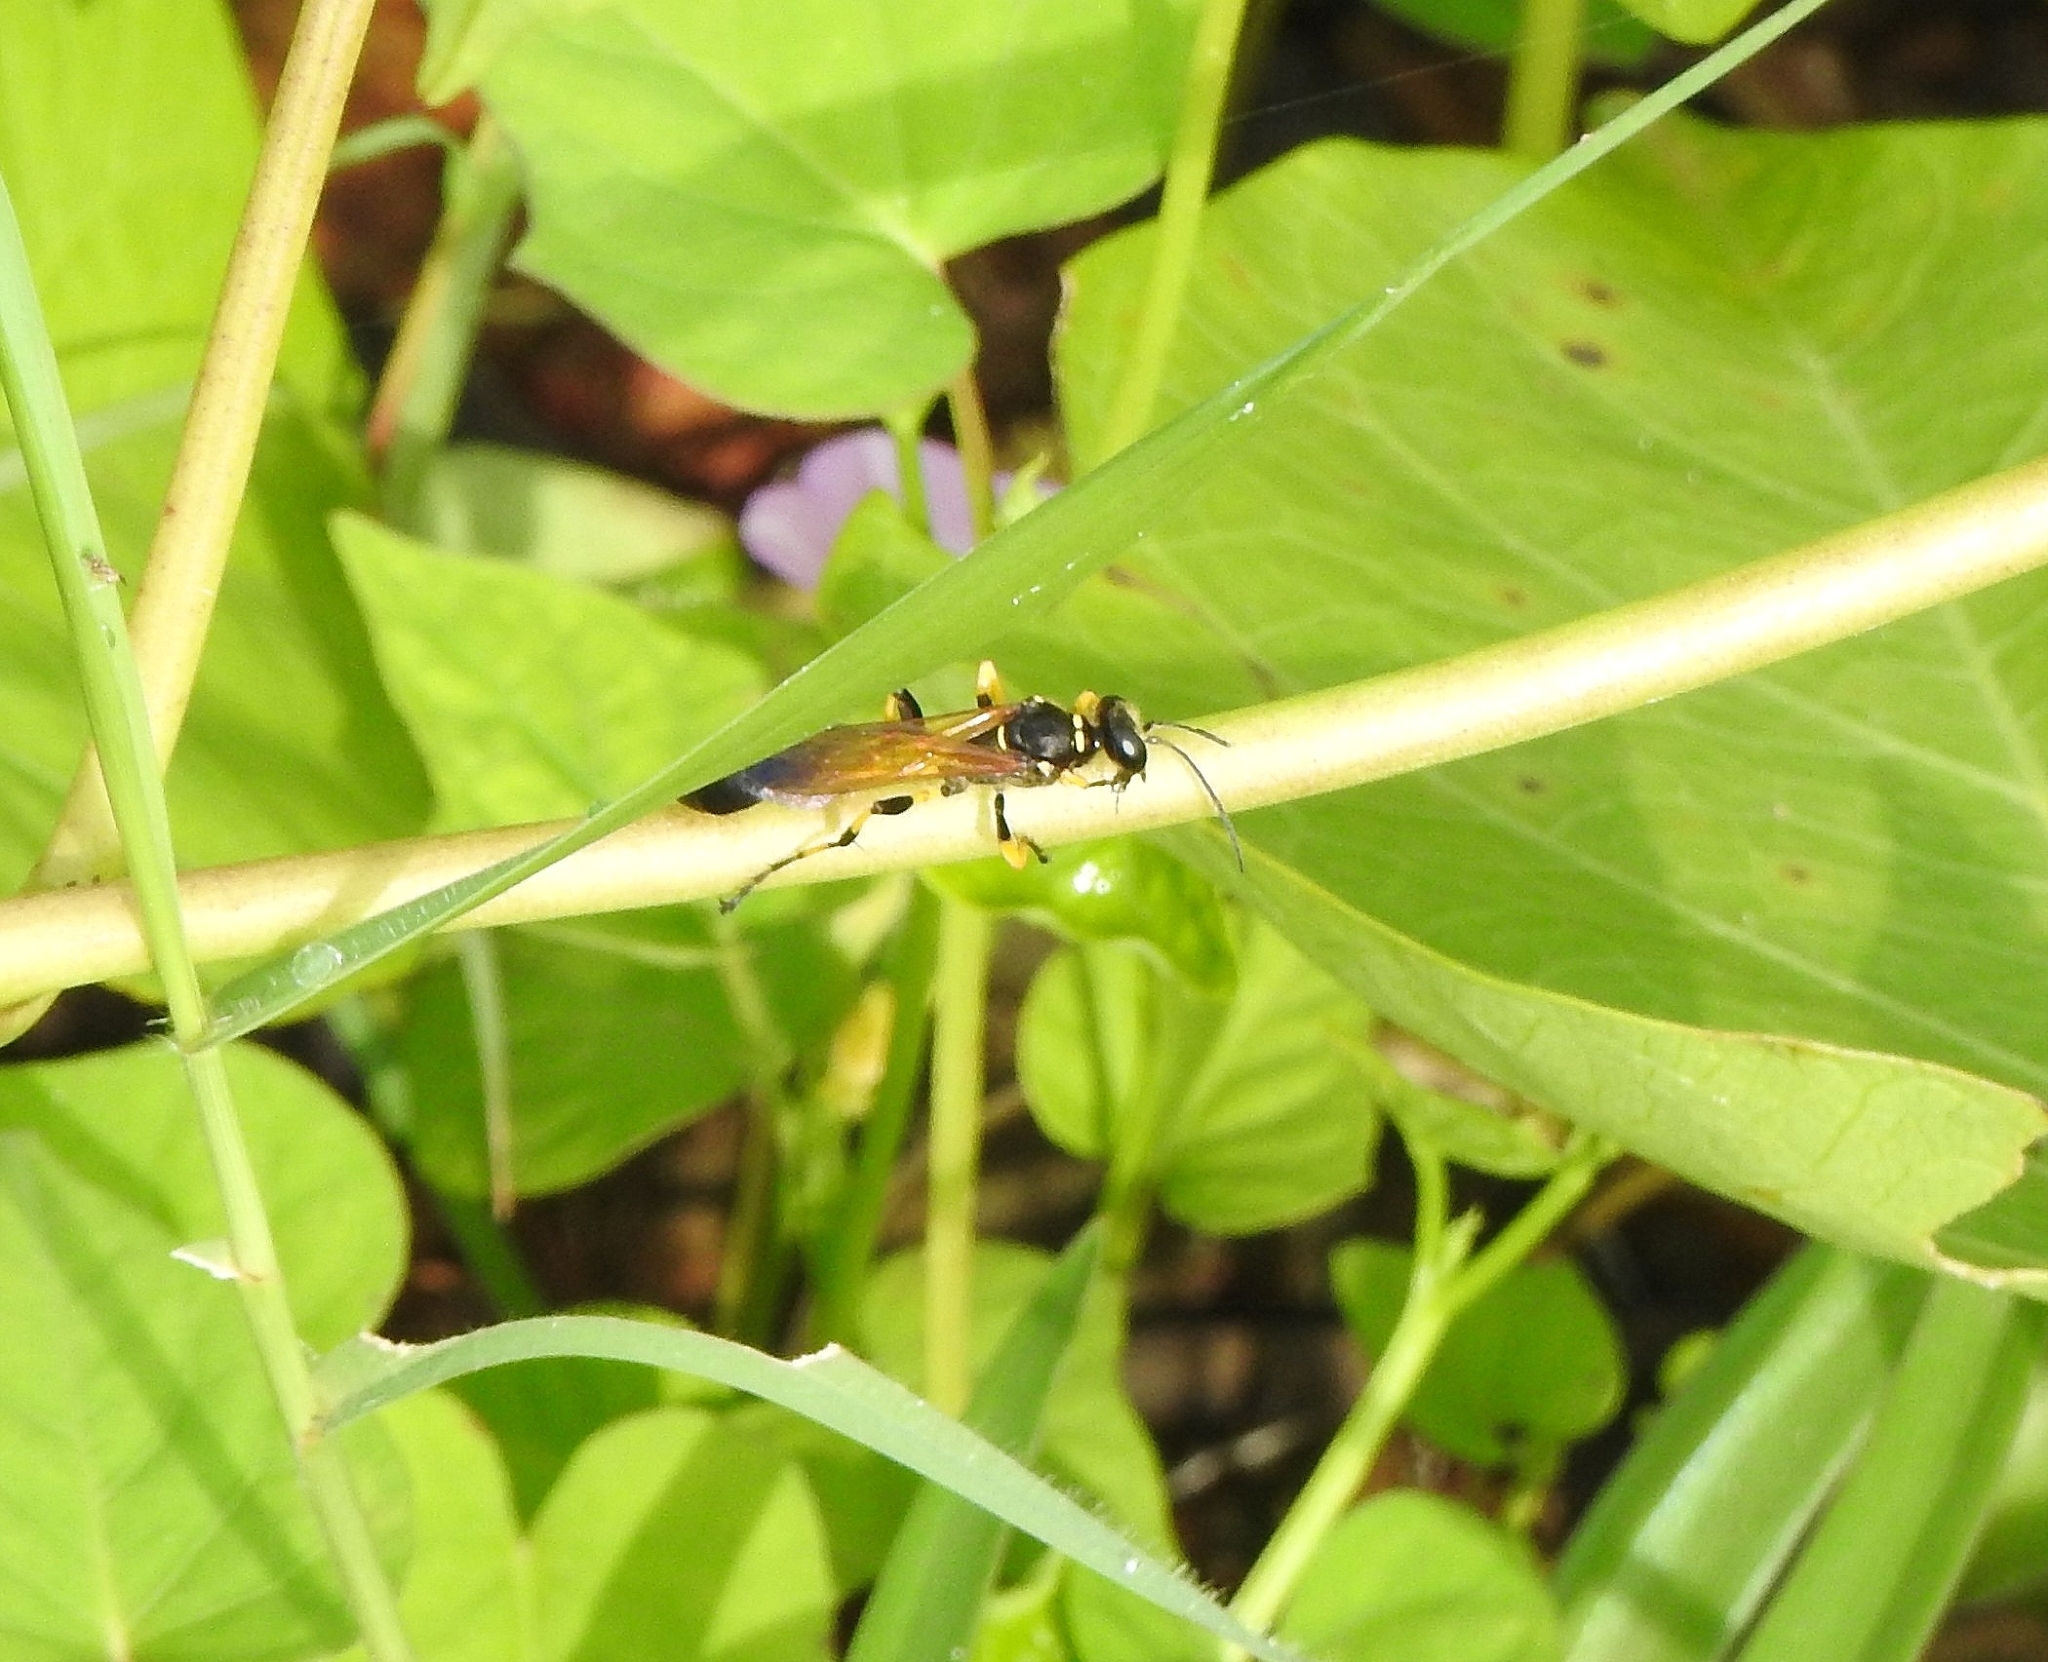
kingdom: Animalia
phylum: Arthropoda
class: Insecta
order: Hymenoptera
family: Sphecidae
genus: Sceliphron
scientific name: Sceliphron madraspatanum
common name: Mud dauber
